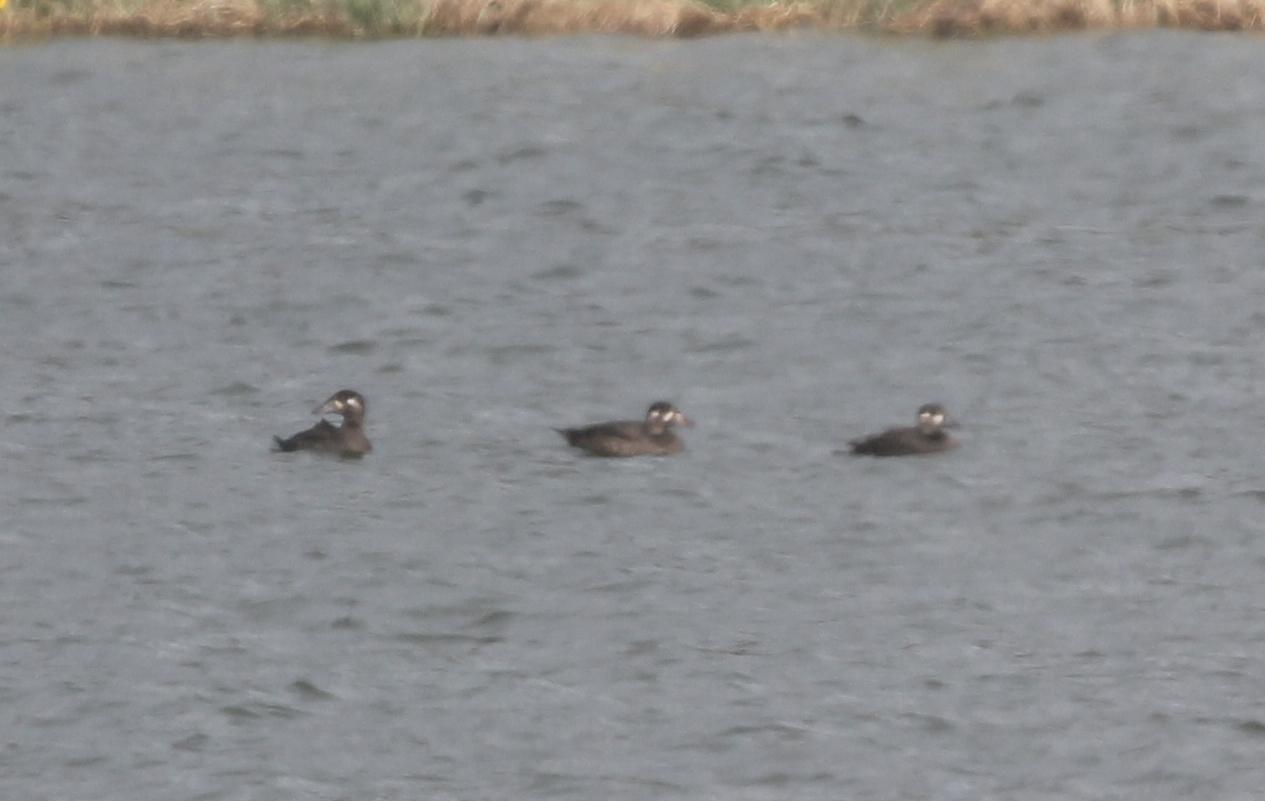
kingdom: Animalia
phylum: Chordata
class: Aves
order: Anseriformes
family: Anatidae
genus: Melanitta
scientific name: Melanitta perspicillata
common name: Surf scoter
